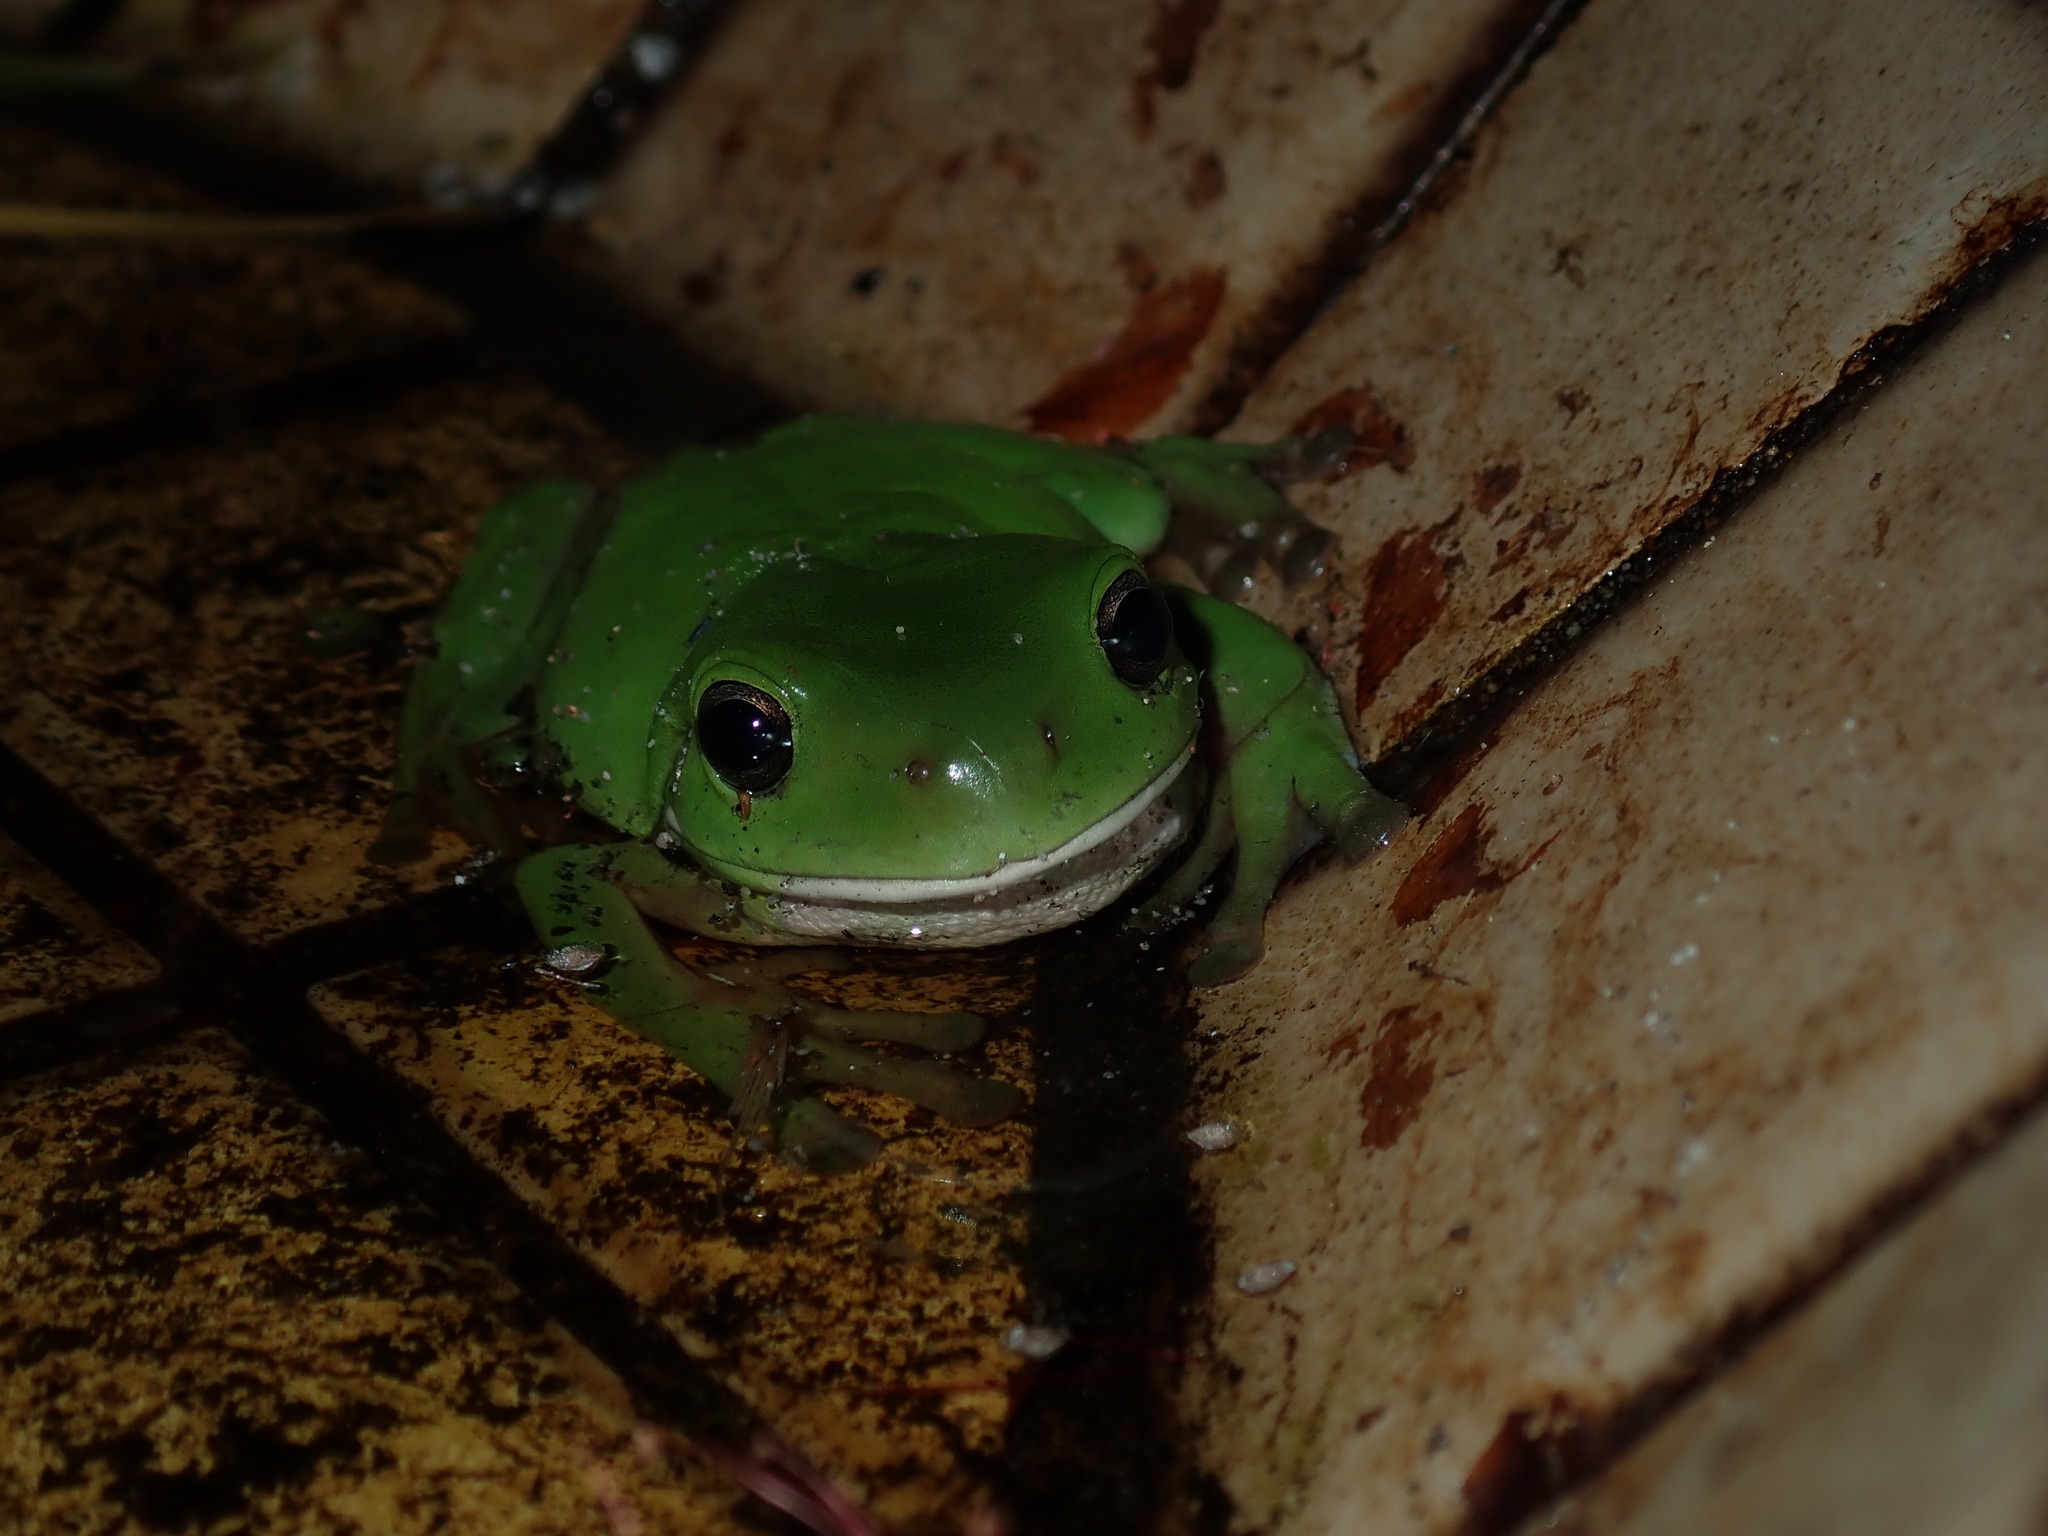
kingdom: Animalia
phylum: Chordata
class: Amphibia
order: Anura
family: Pelodryadidae
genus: Ranoidea
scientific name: Ranoidea caerulea
